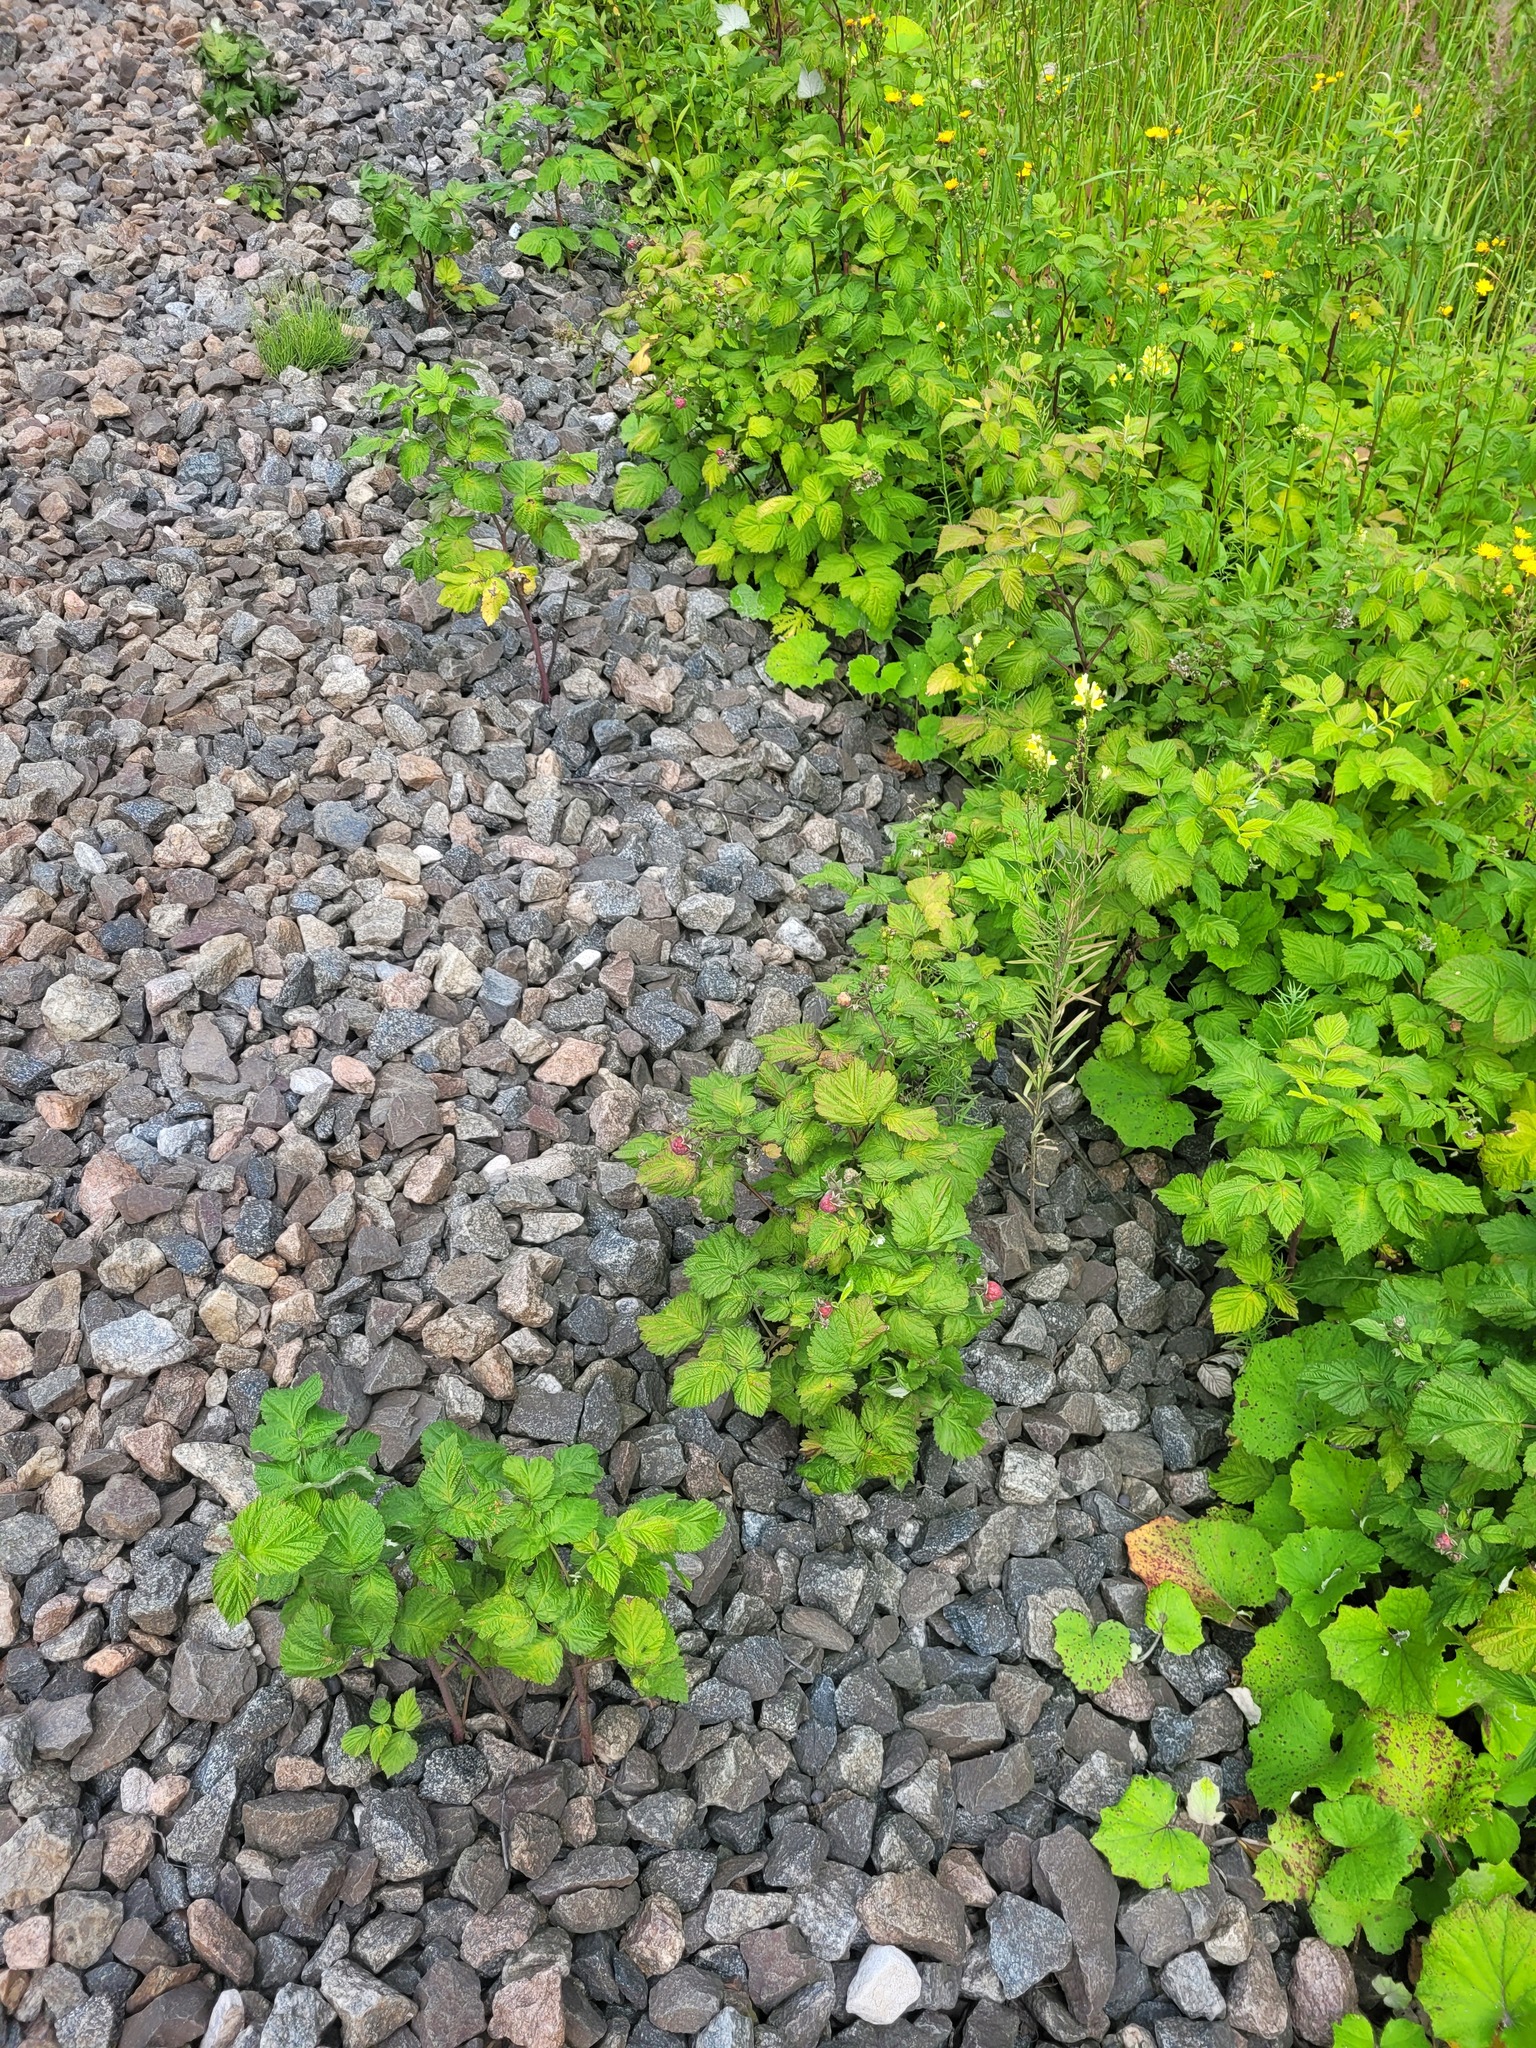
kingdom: Plantae
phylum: Tracheophyta
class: Magnoliopsida
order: Rosales
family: Rosaceae
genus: Rubus
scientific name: Rubus idaeus
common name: Raspberry
